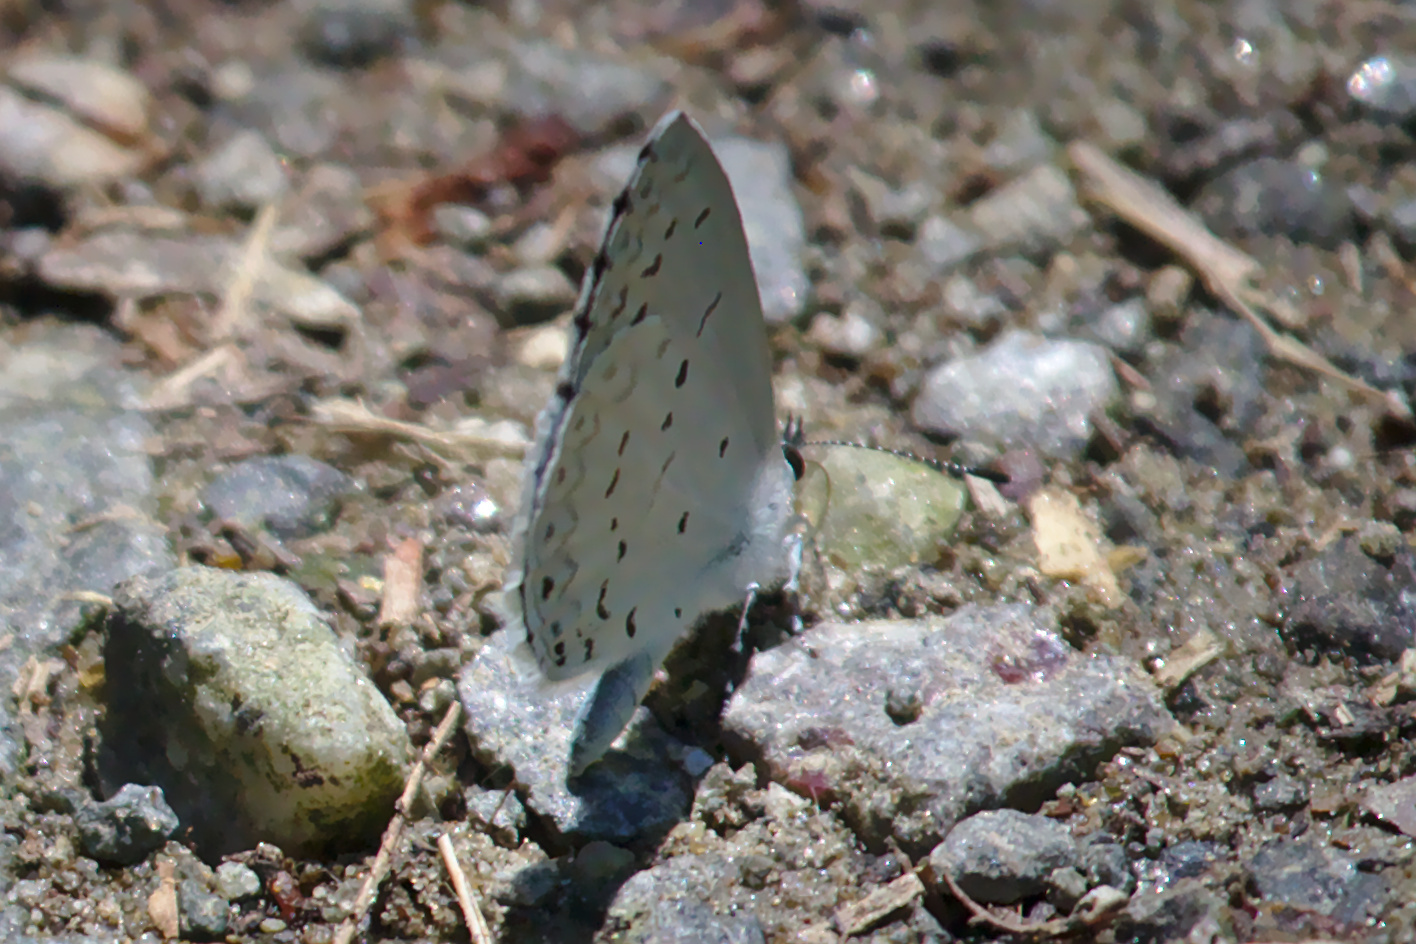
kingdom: Animalia
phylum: Arthropoda
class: Insecta
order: Lepidoptera
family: Lycaenidae
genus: Cyaniris
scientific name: Cyaniris neglecta
